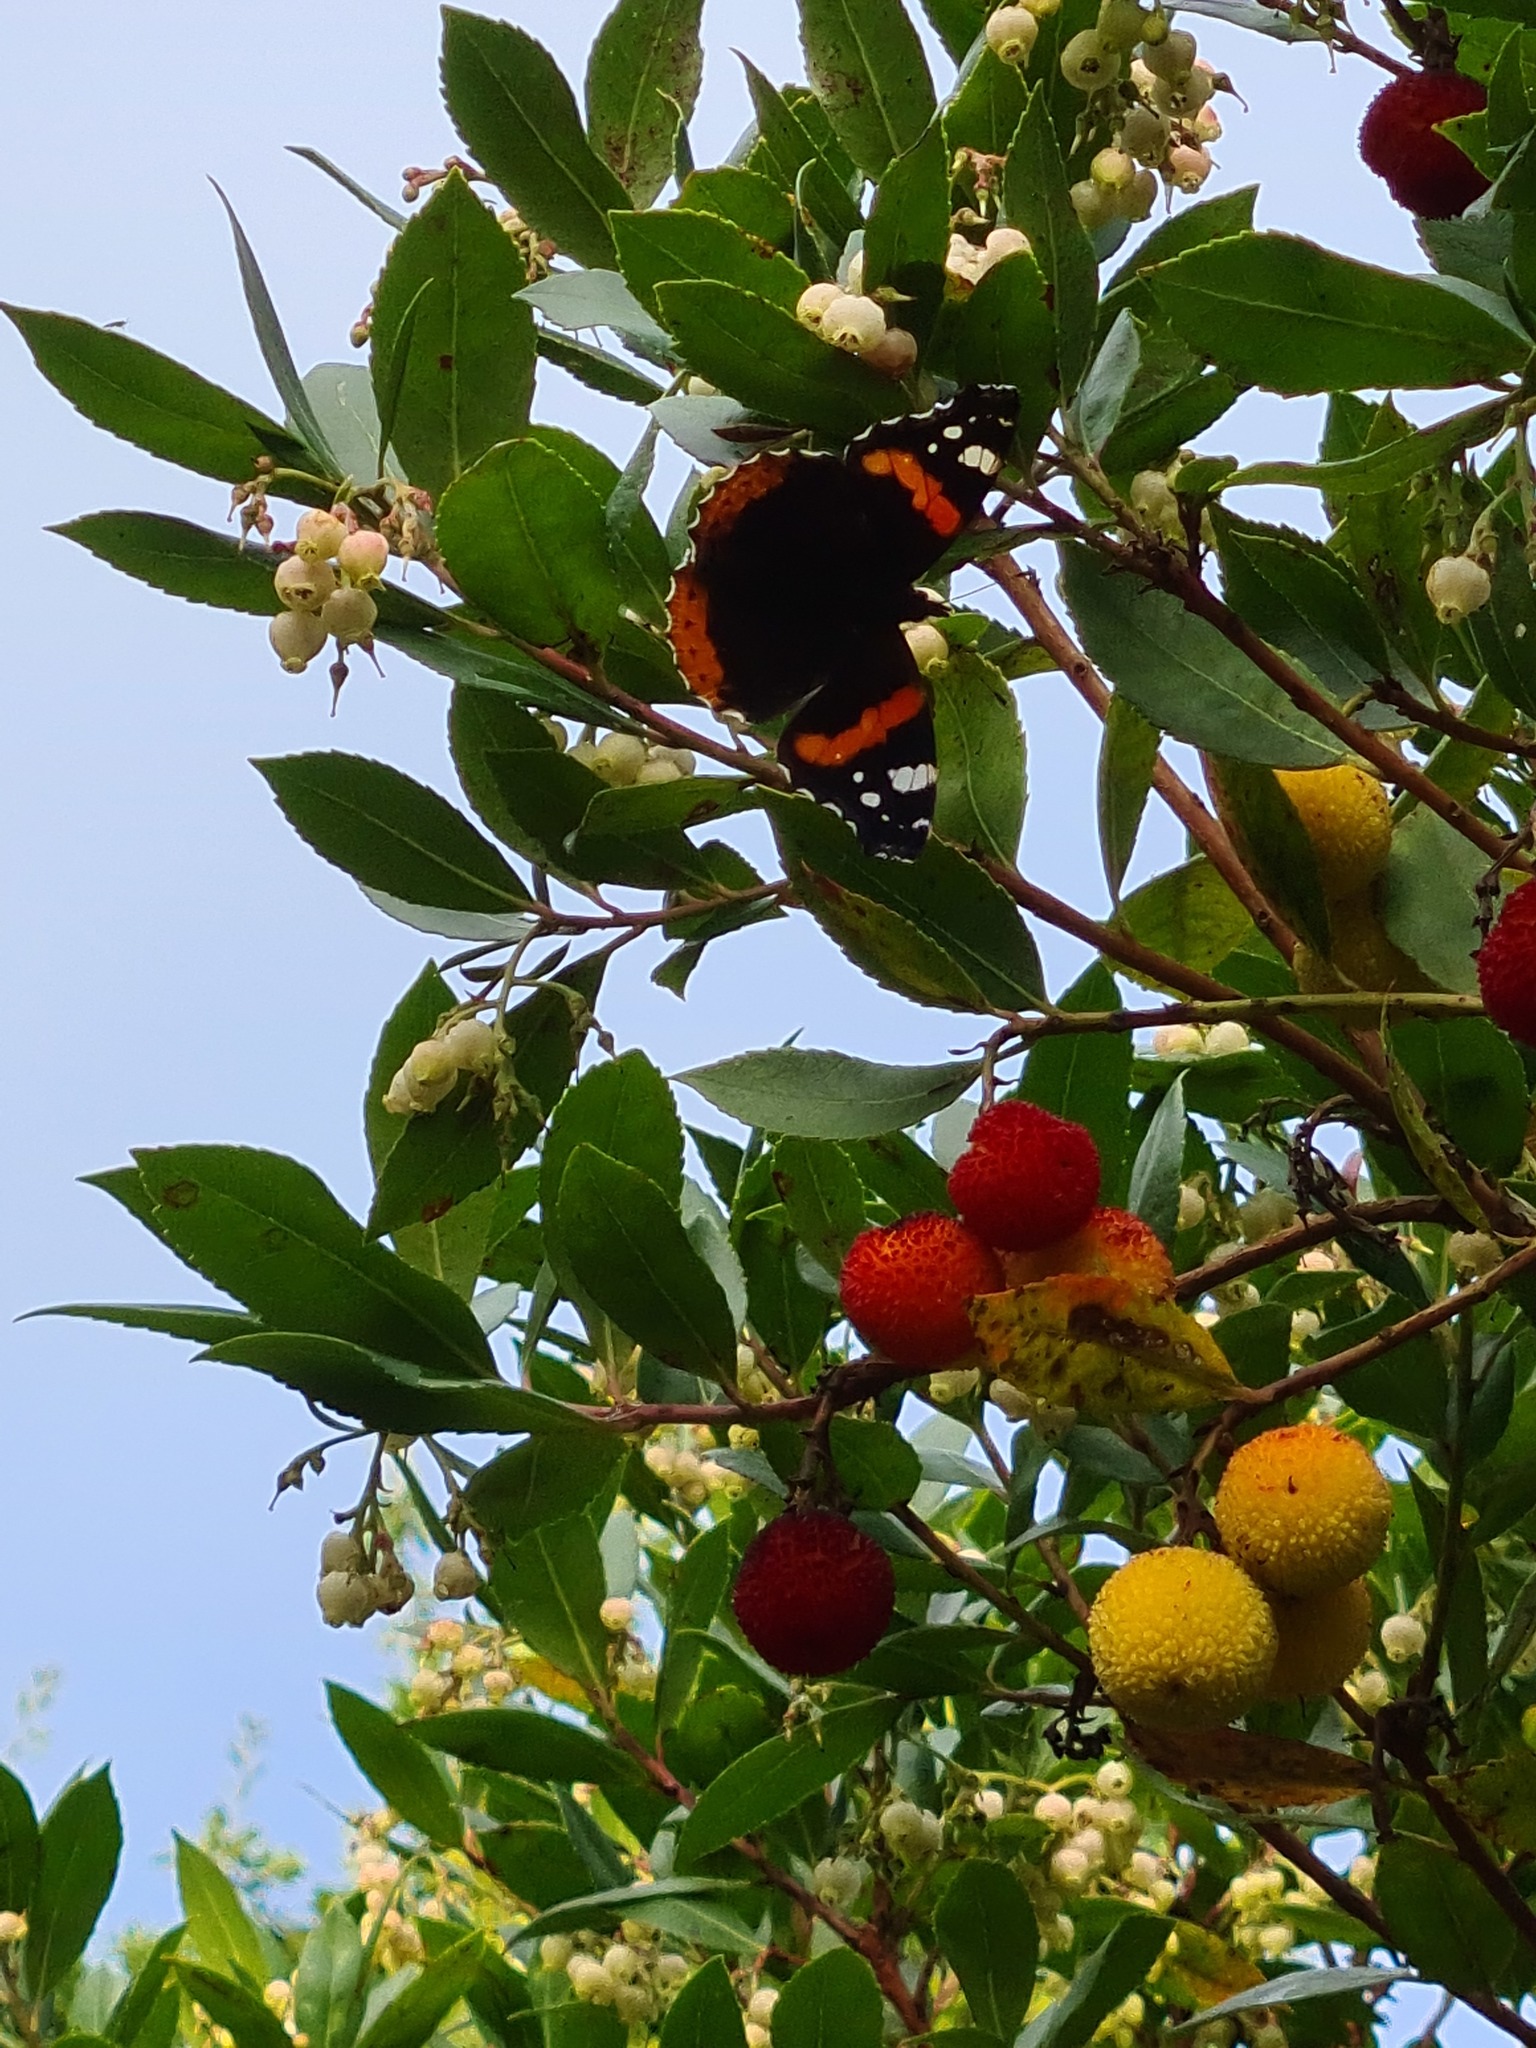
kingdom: Animalia
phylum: Arthropoda
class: Insecta
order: Lepidoptera
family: Nymphalidae
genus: Vanessa
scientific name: Vanessa atalanta
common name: Red admiral
